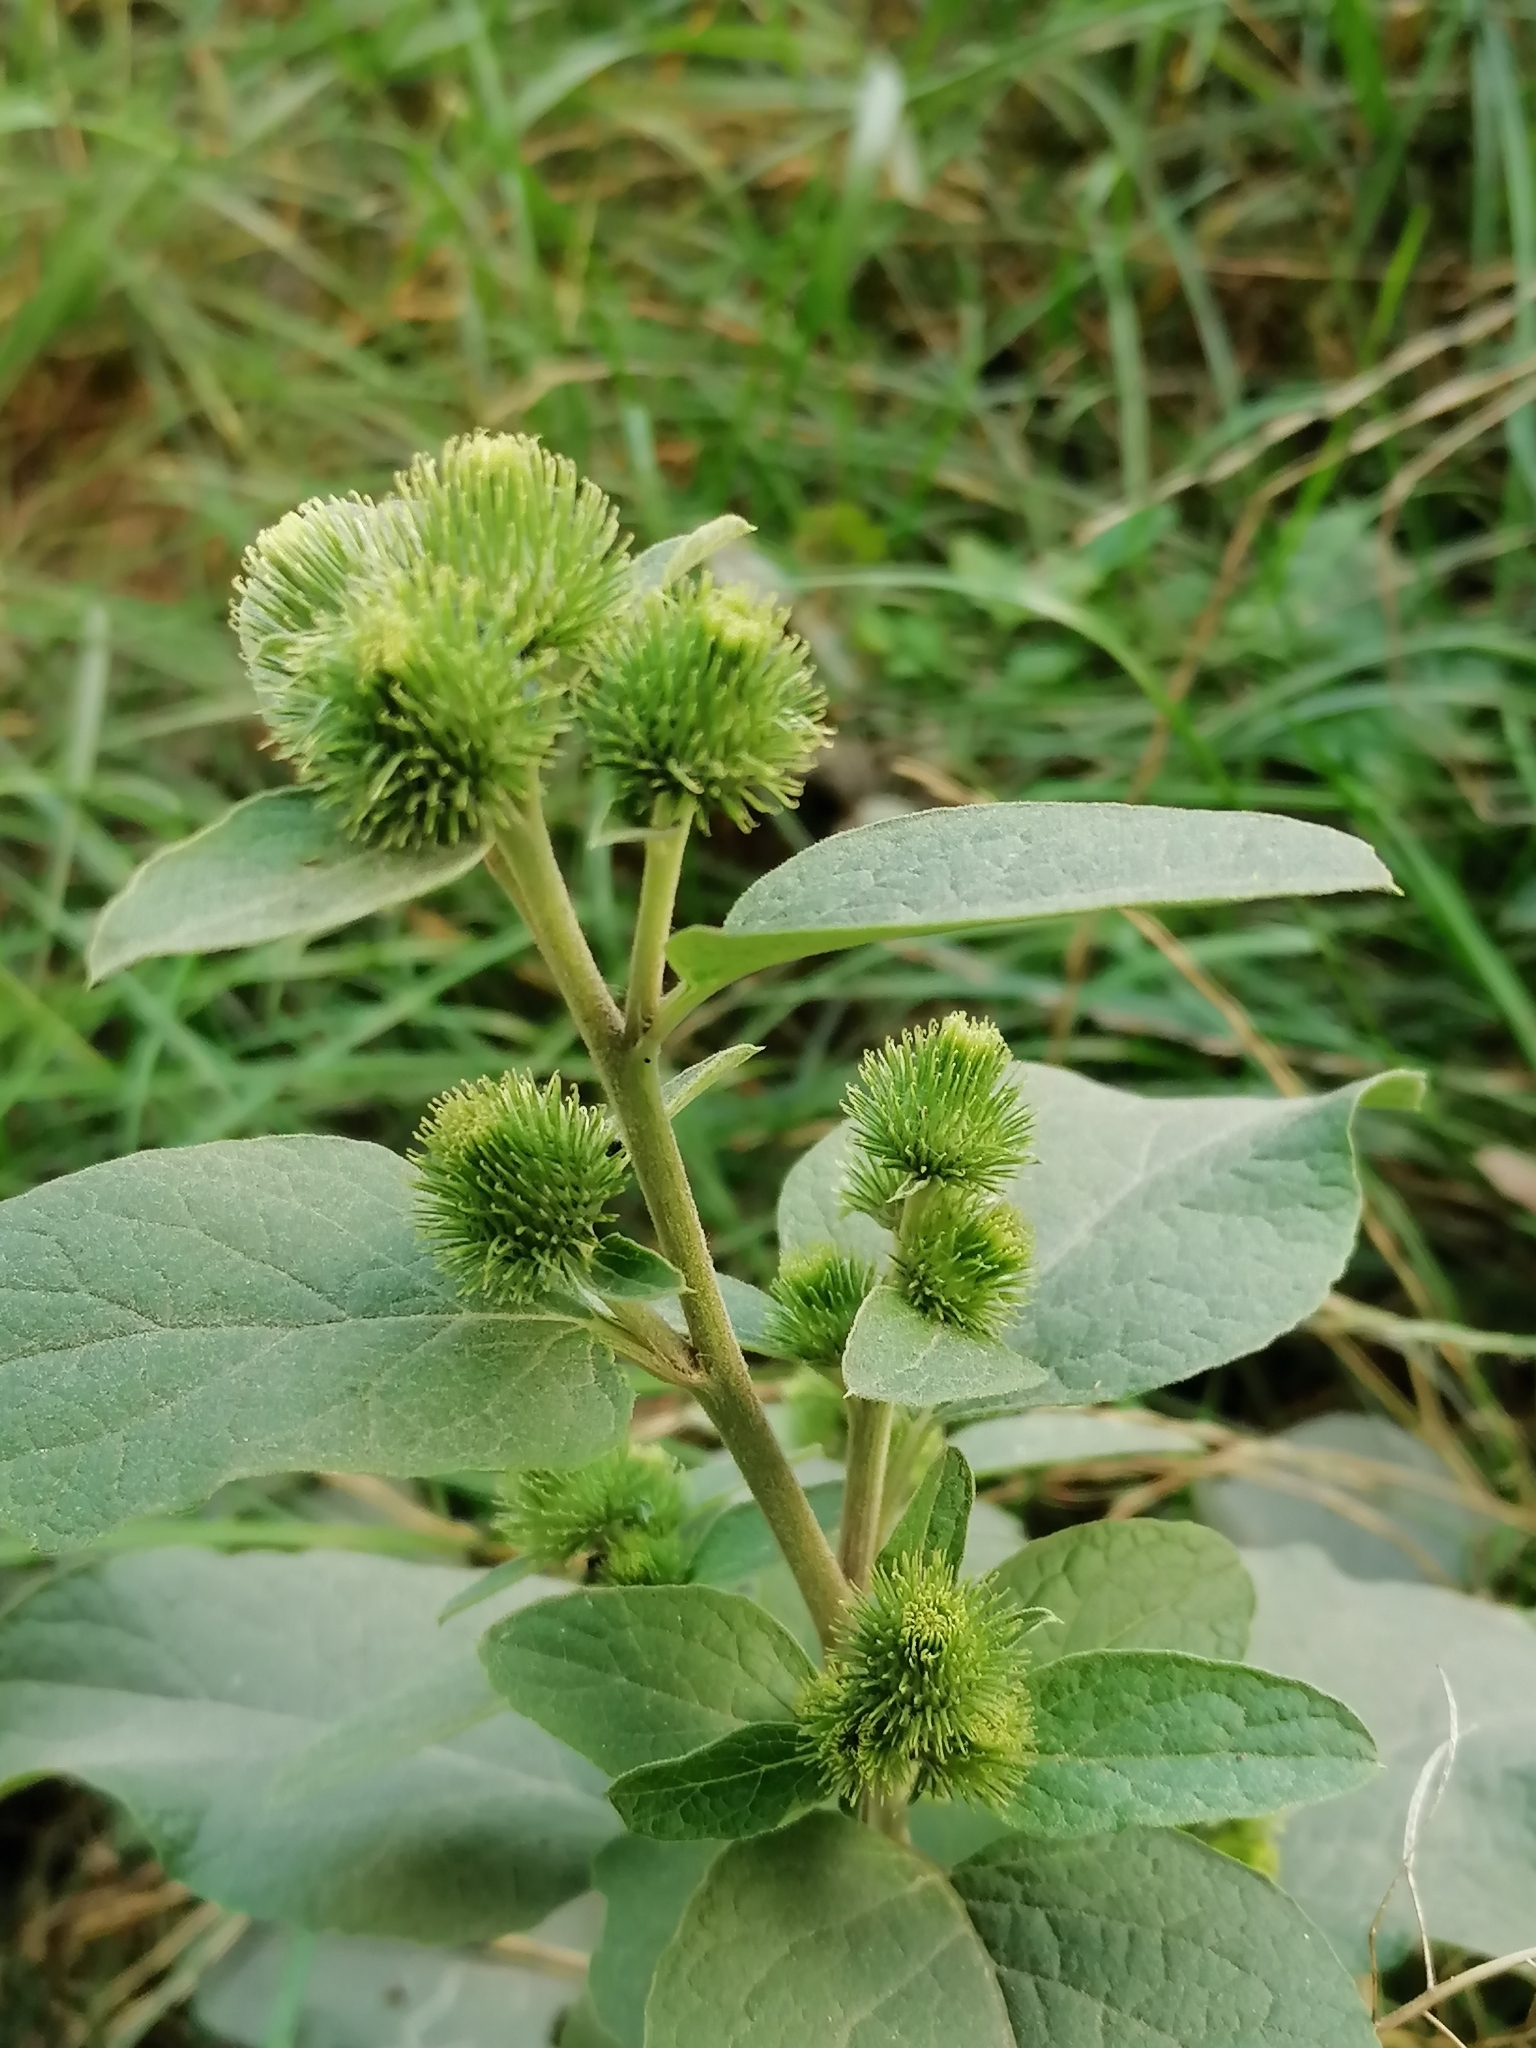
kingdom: Plantae
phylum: Tracheophyta
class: Magnoliopsida
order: Asterales
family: Asteraceae
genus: Arctium
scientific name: Arctium minus
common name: Lesser burdock
